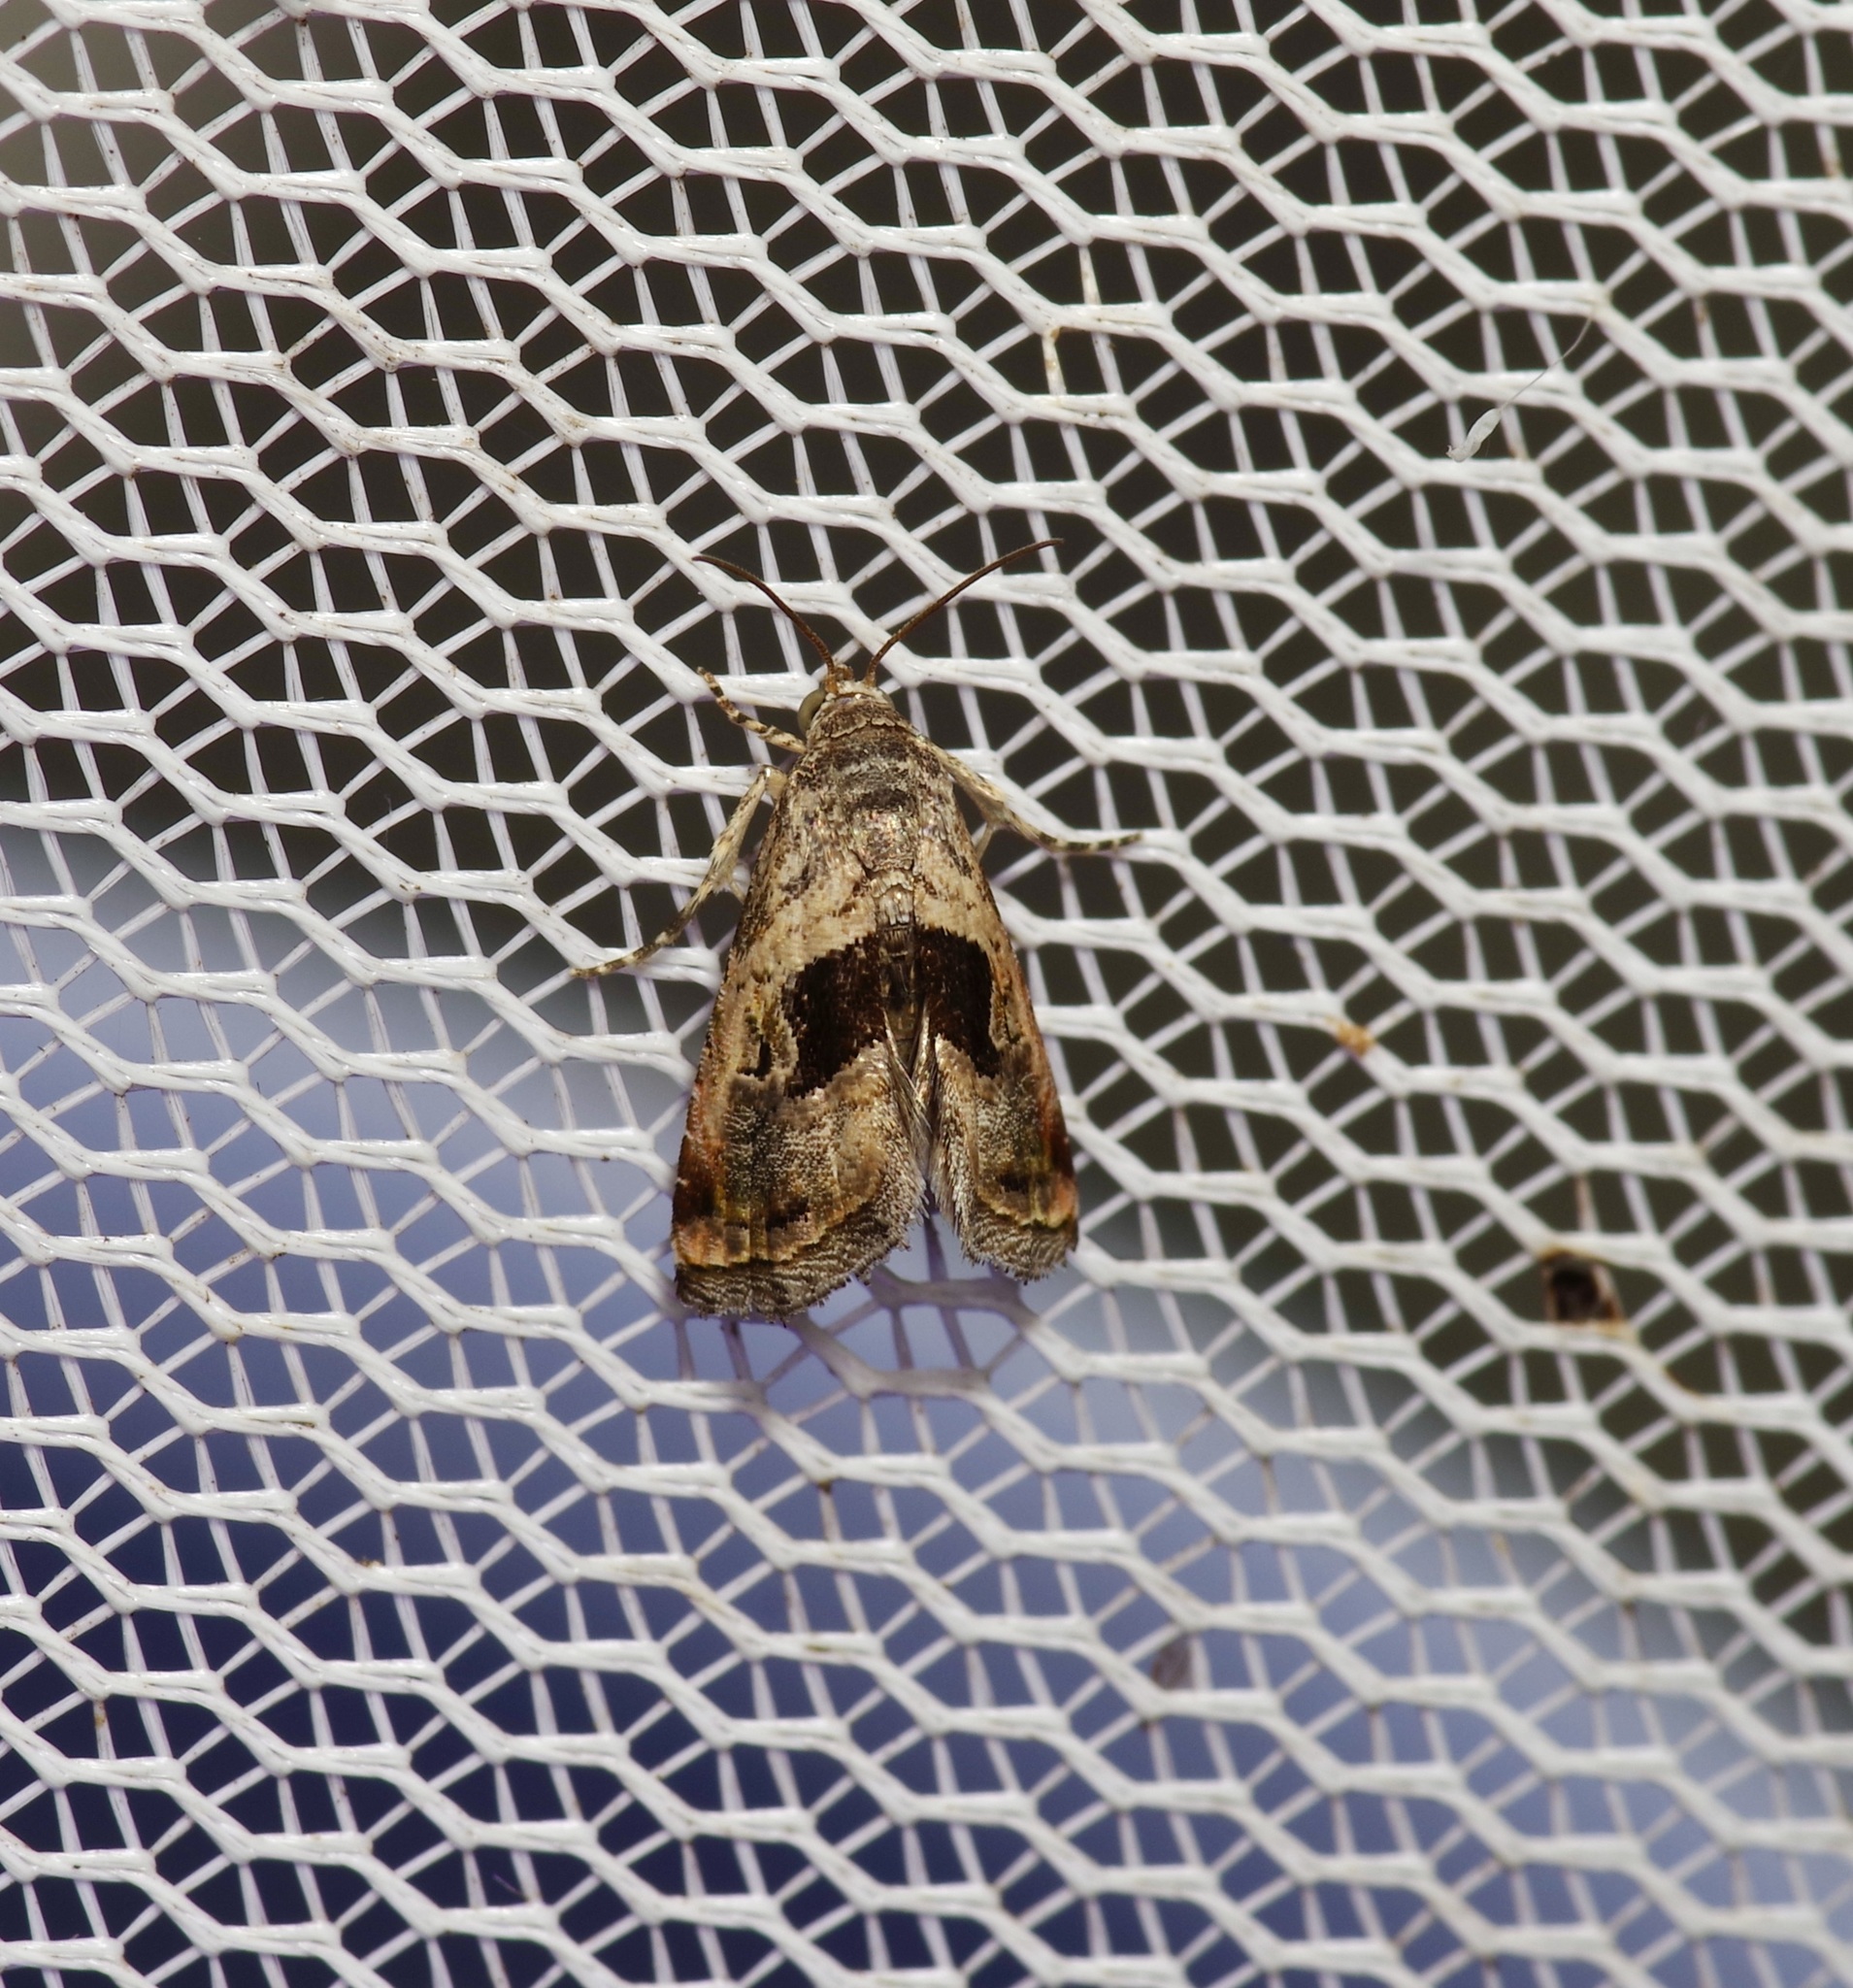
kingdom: Animalia
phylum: Arthropoda
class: Insecta
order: Lepidoptera
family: Noctuidae
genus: Tripudia
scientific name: Tripudia quadrifera
